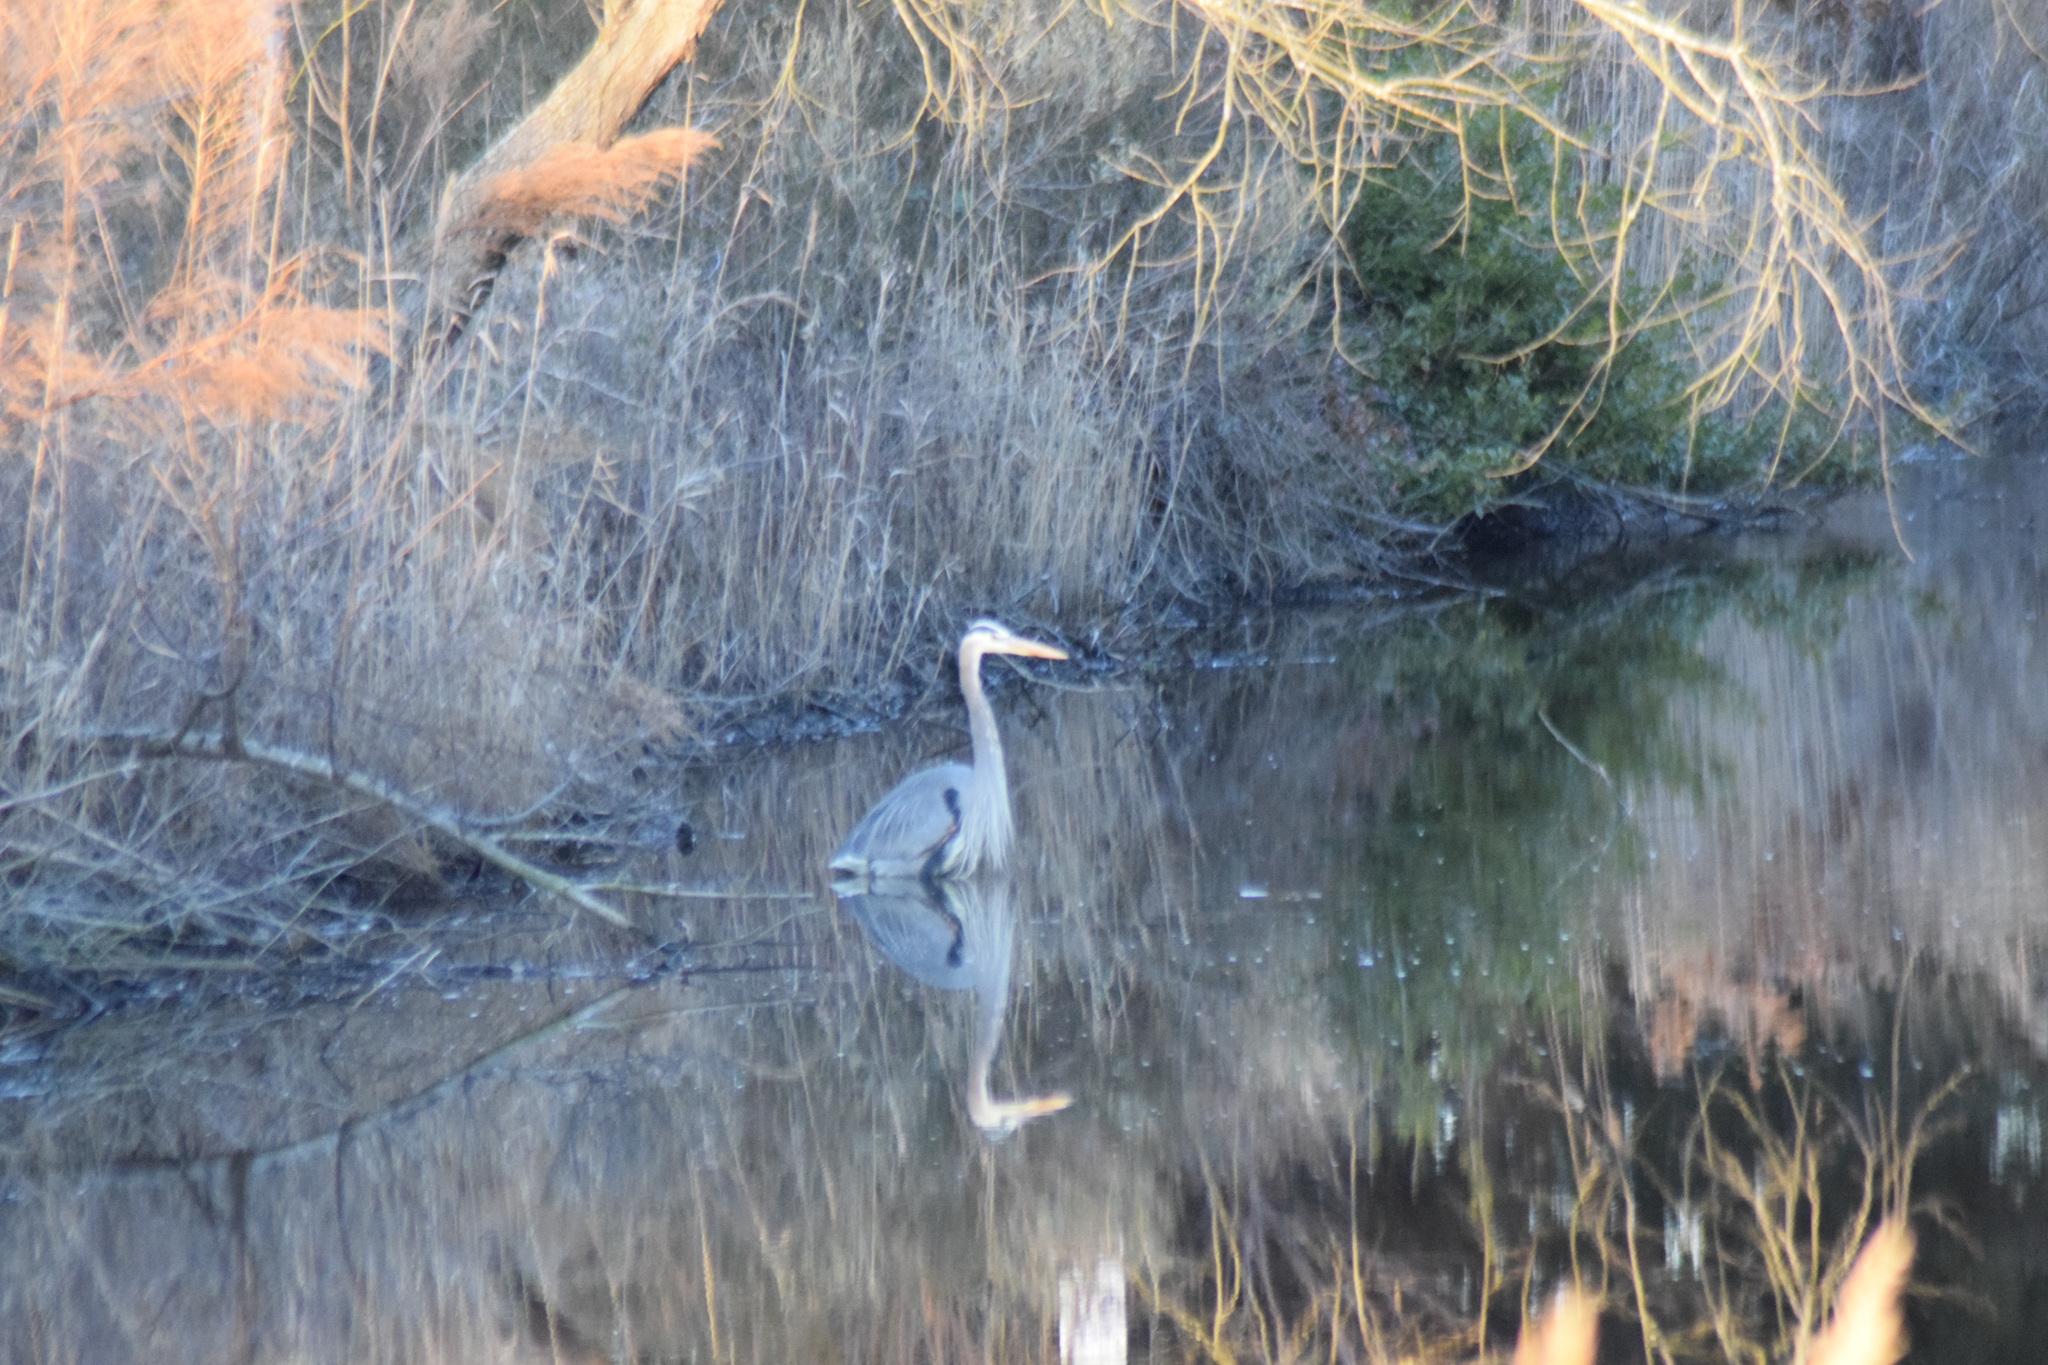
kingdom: Animalia
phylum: Chordata
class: Aves
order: Pelecaniformes
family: Ardeidae
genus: Ardea
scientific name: Ardea herodias
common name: Great blue heron
